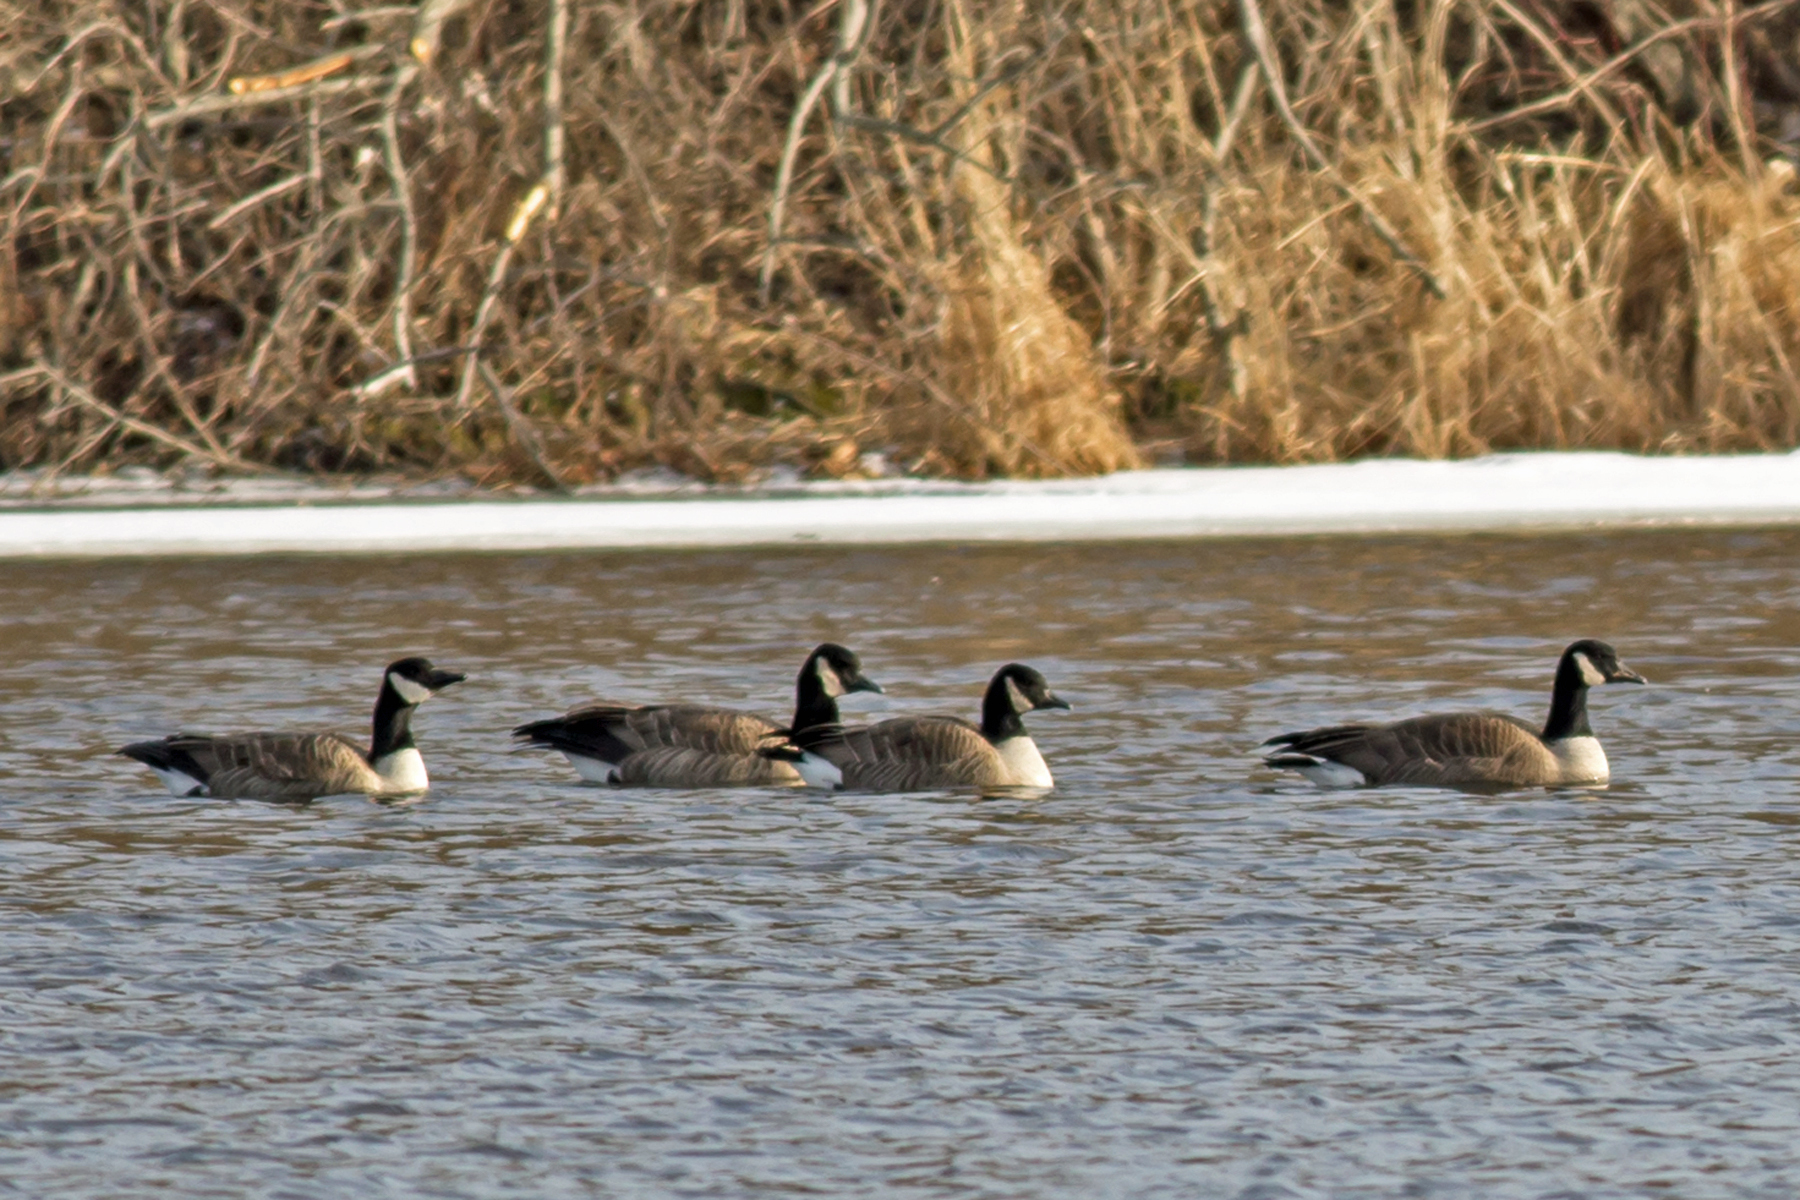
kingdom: Animalia
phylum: Chordata
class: Aves
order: Anseriformes
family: Anatidae
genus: Branta
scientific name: Branta canadensis
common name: Canada goose
